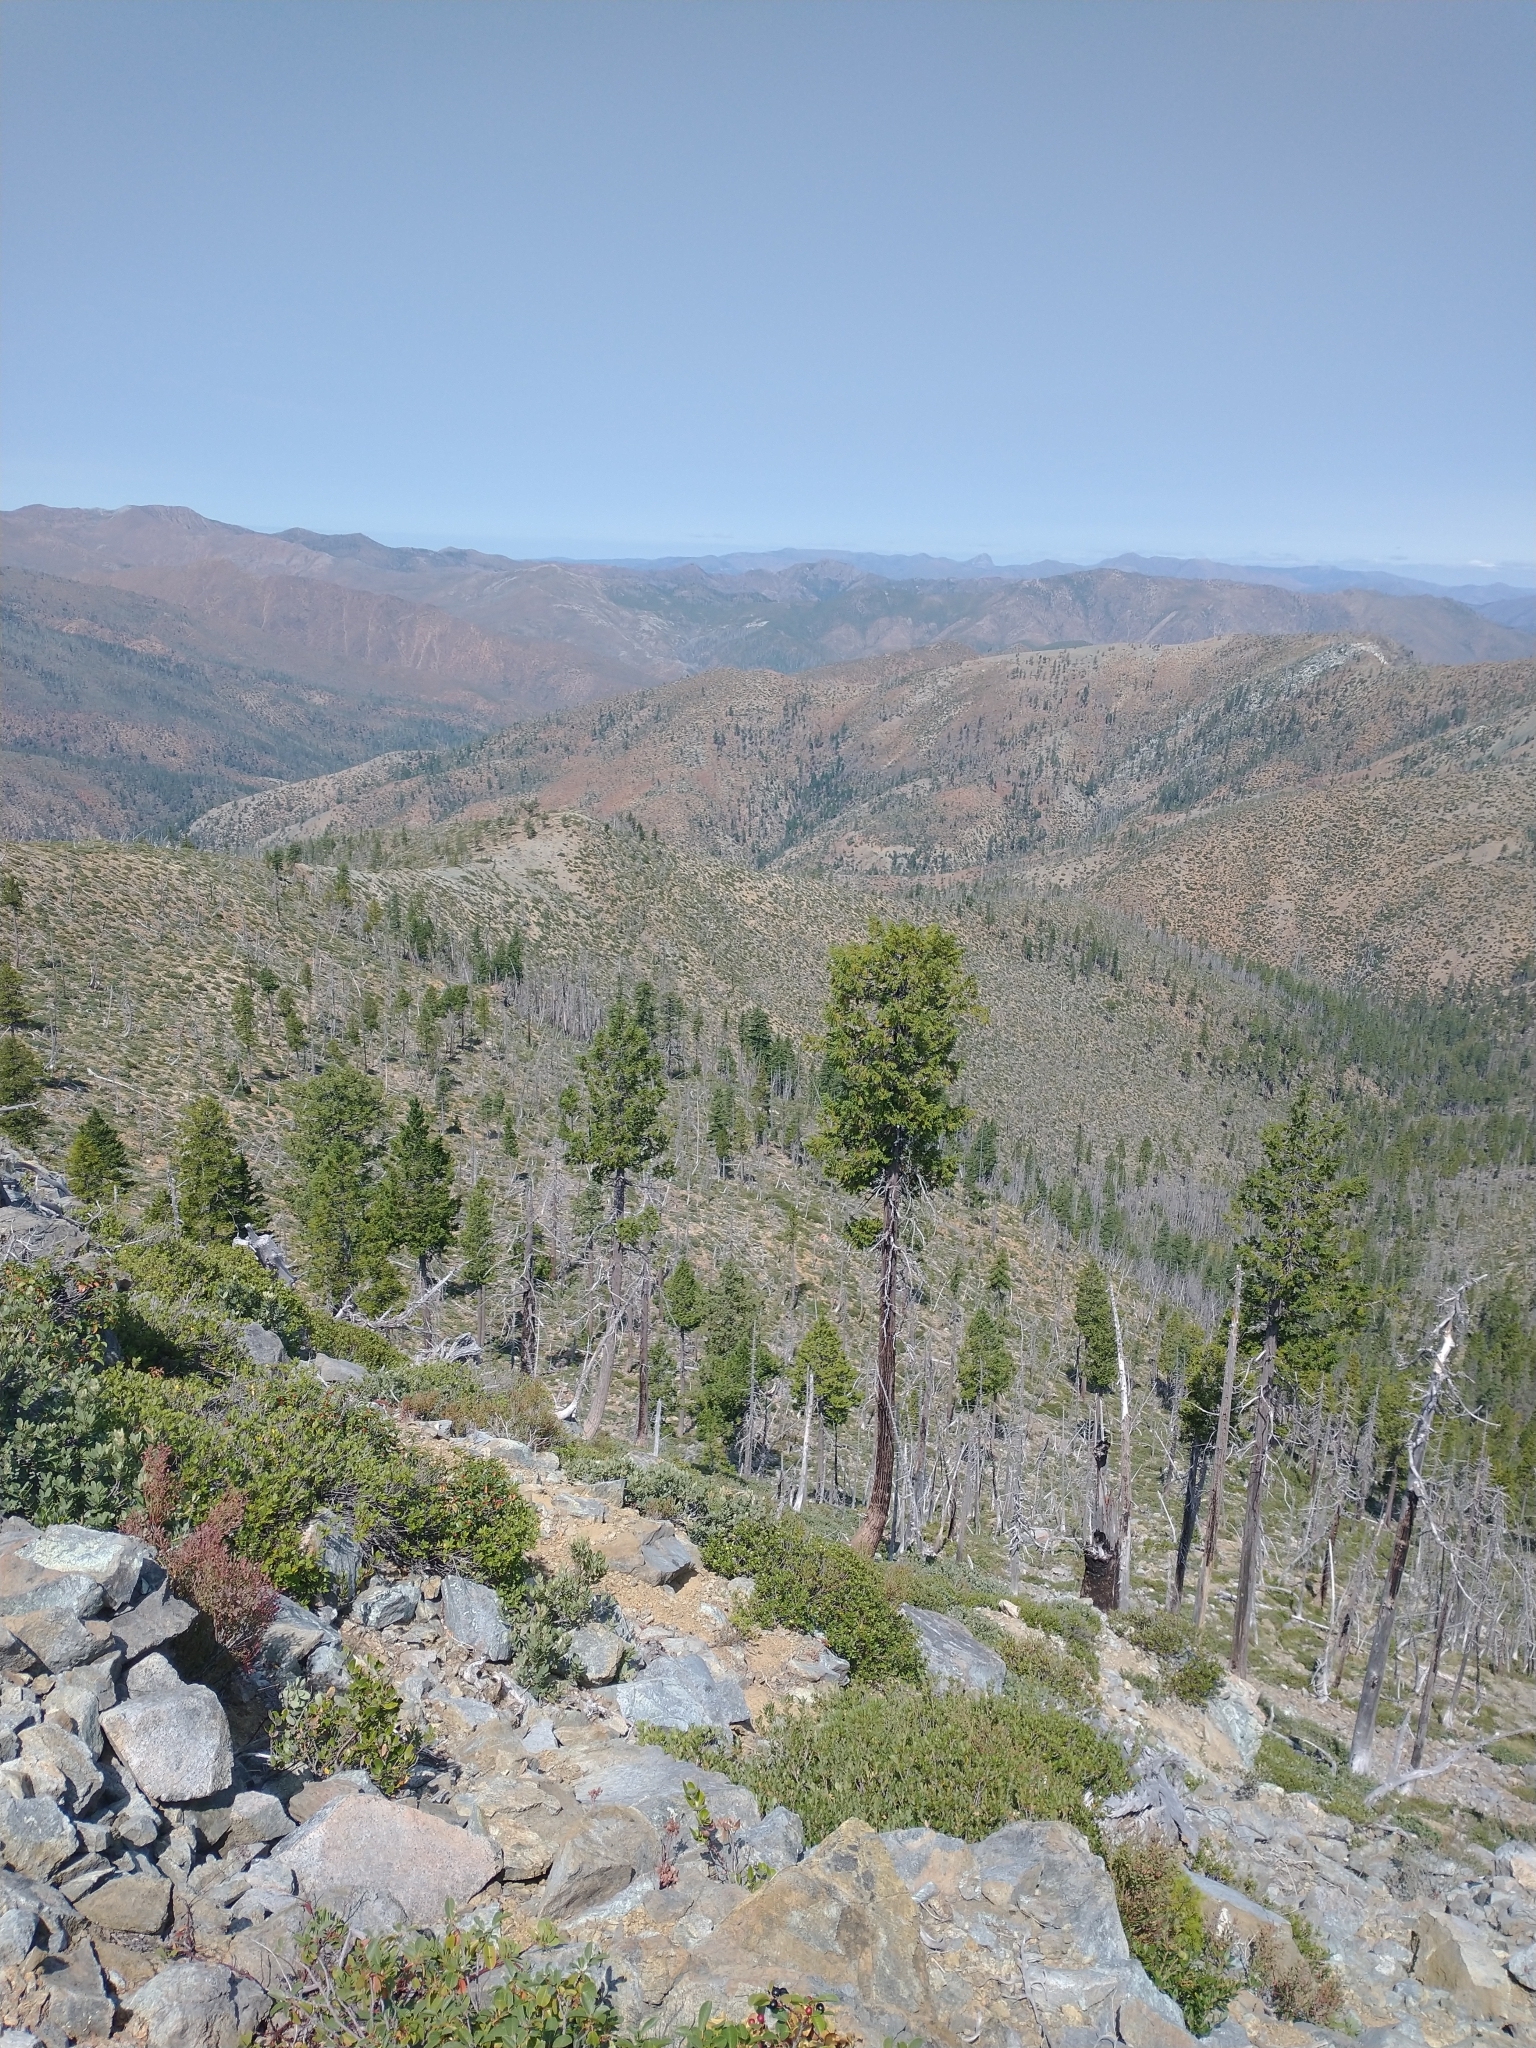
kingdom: Plantae
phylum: Tracheophyta
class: Pinopsida
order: Pinales
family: Cupressaceae
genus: Chamaecyparis
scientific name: Chamaecyparis lawsoniana
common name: Lawson's cypress
